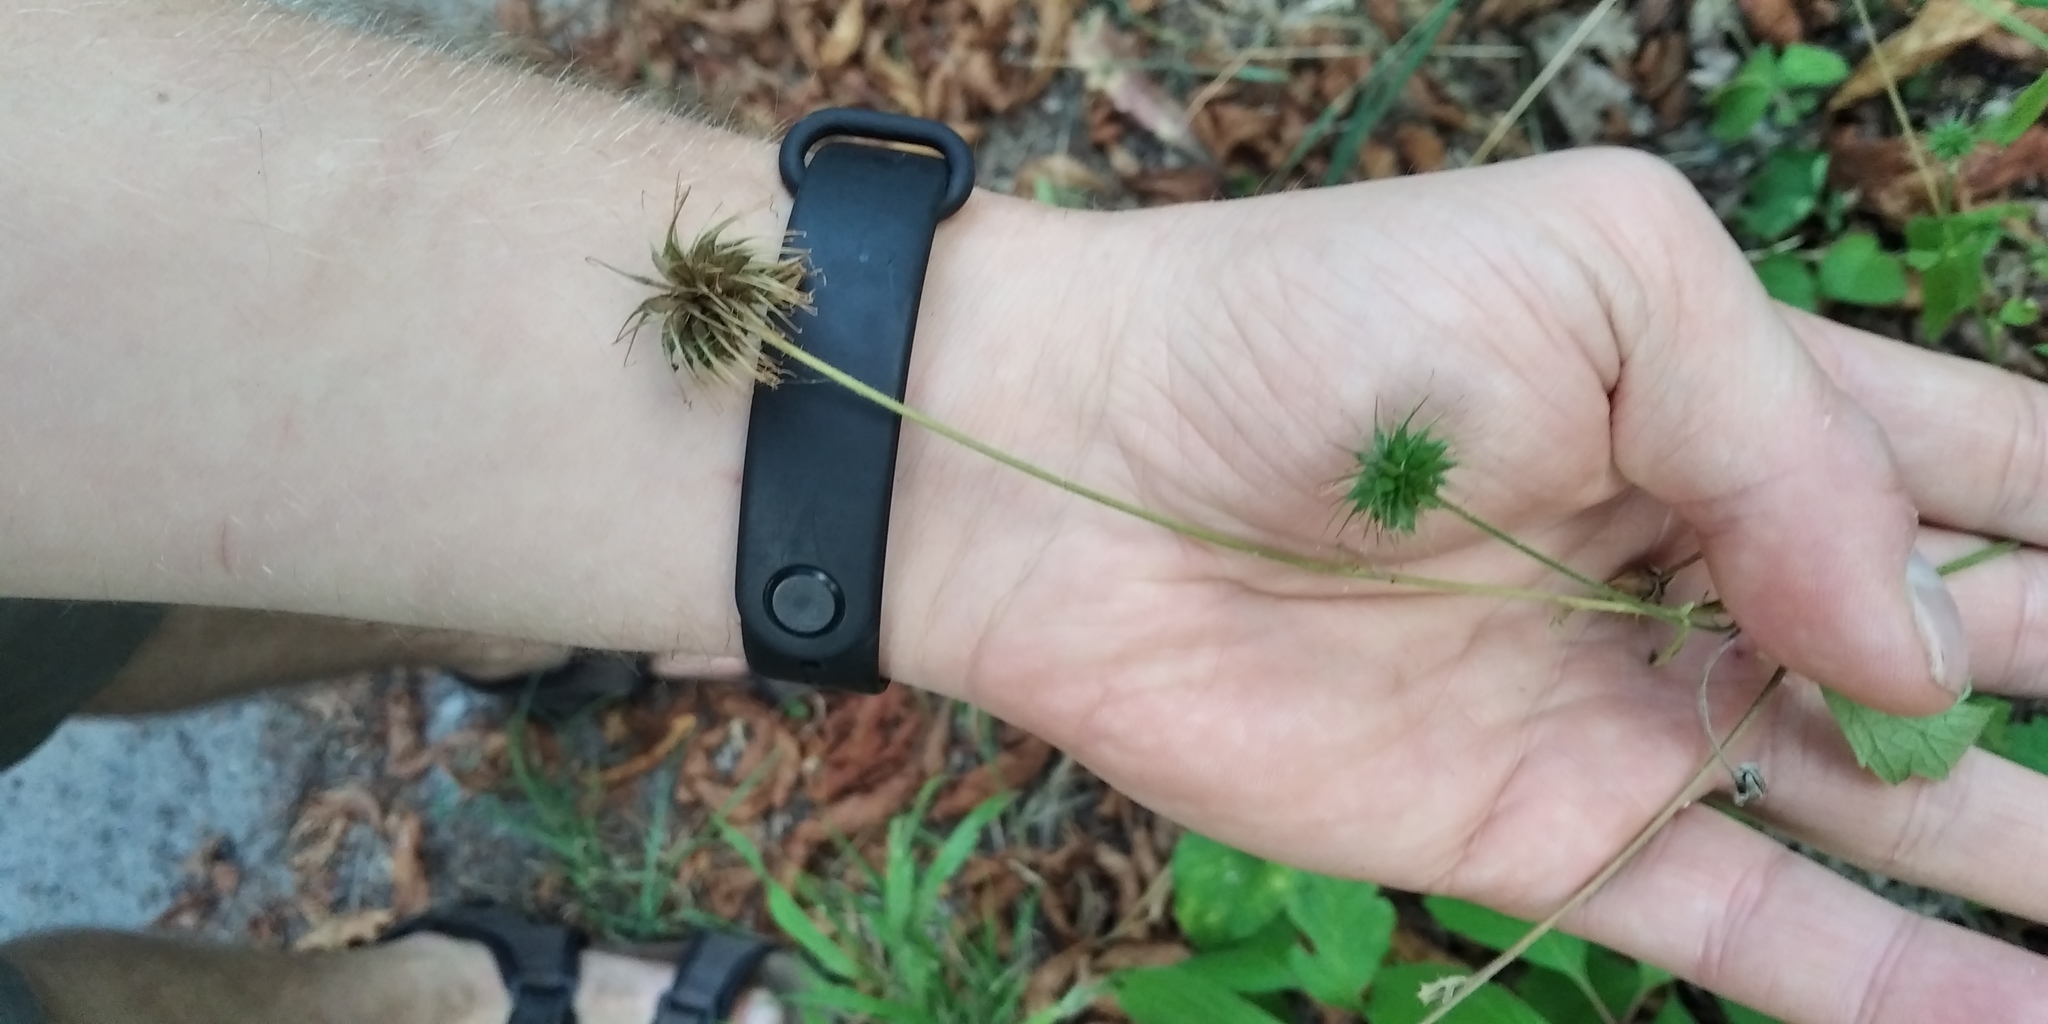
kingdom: Plantae
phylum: Tracheophyta
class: Magnoliopsida
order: Rosales
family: Rosaceae
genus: Geum
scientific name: Geum urbanum
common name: Wood avens
